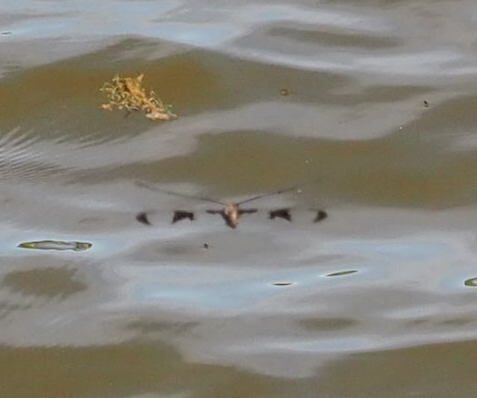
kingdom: Animalia
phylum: Arthropoda
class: Insecta
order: Odonata
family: Corduliidae
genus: Epitheca
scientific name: Epitheca princeps
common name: Prince baskettail
